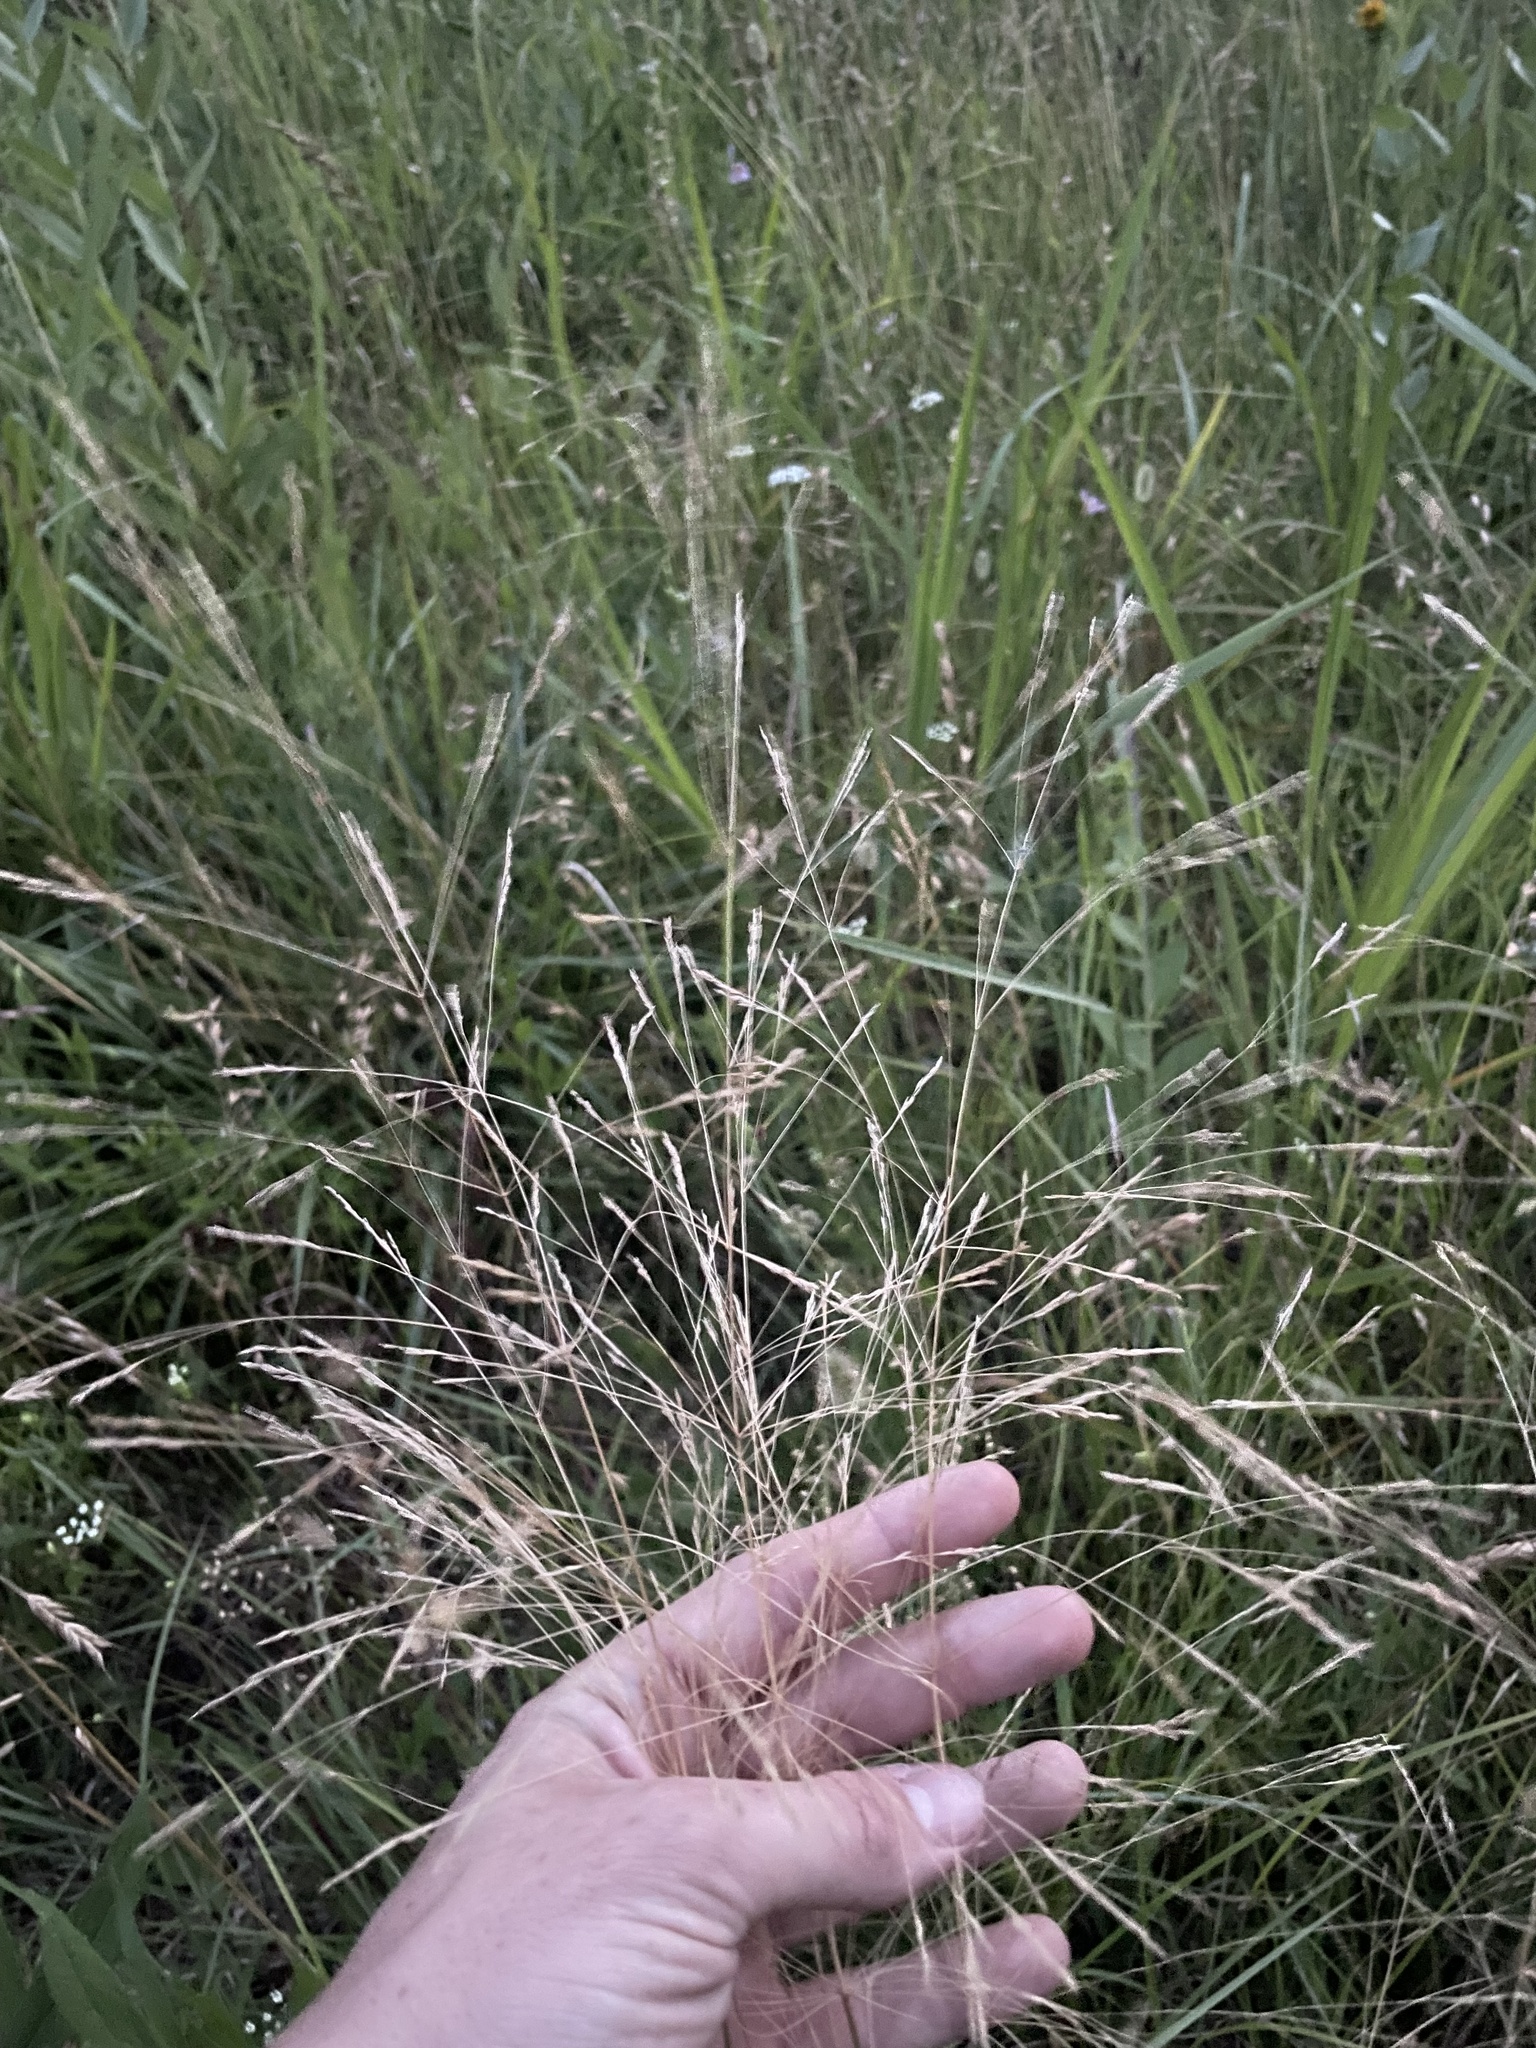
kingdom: Plantae
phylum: Tracheophyta
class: Liliopsida
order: Poales
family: Poaceae
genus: Agrostis
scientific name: Agrostis scabra
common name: Rough bent
